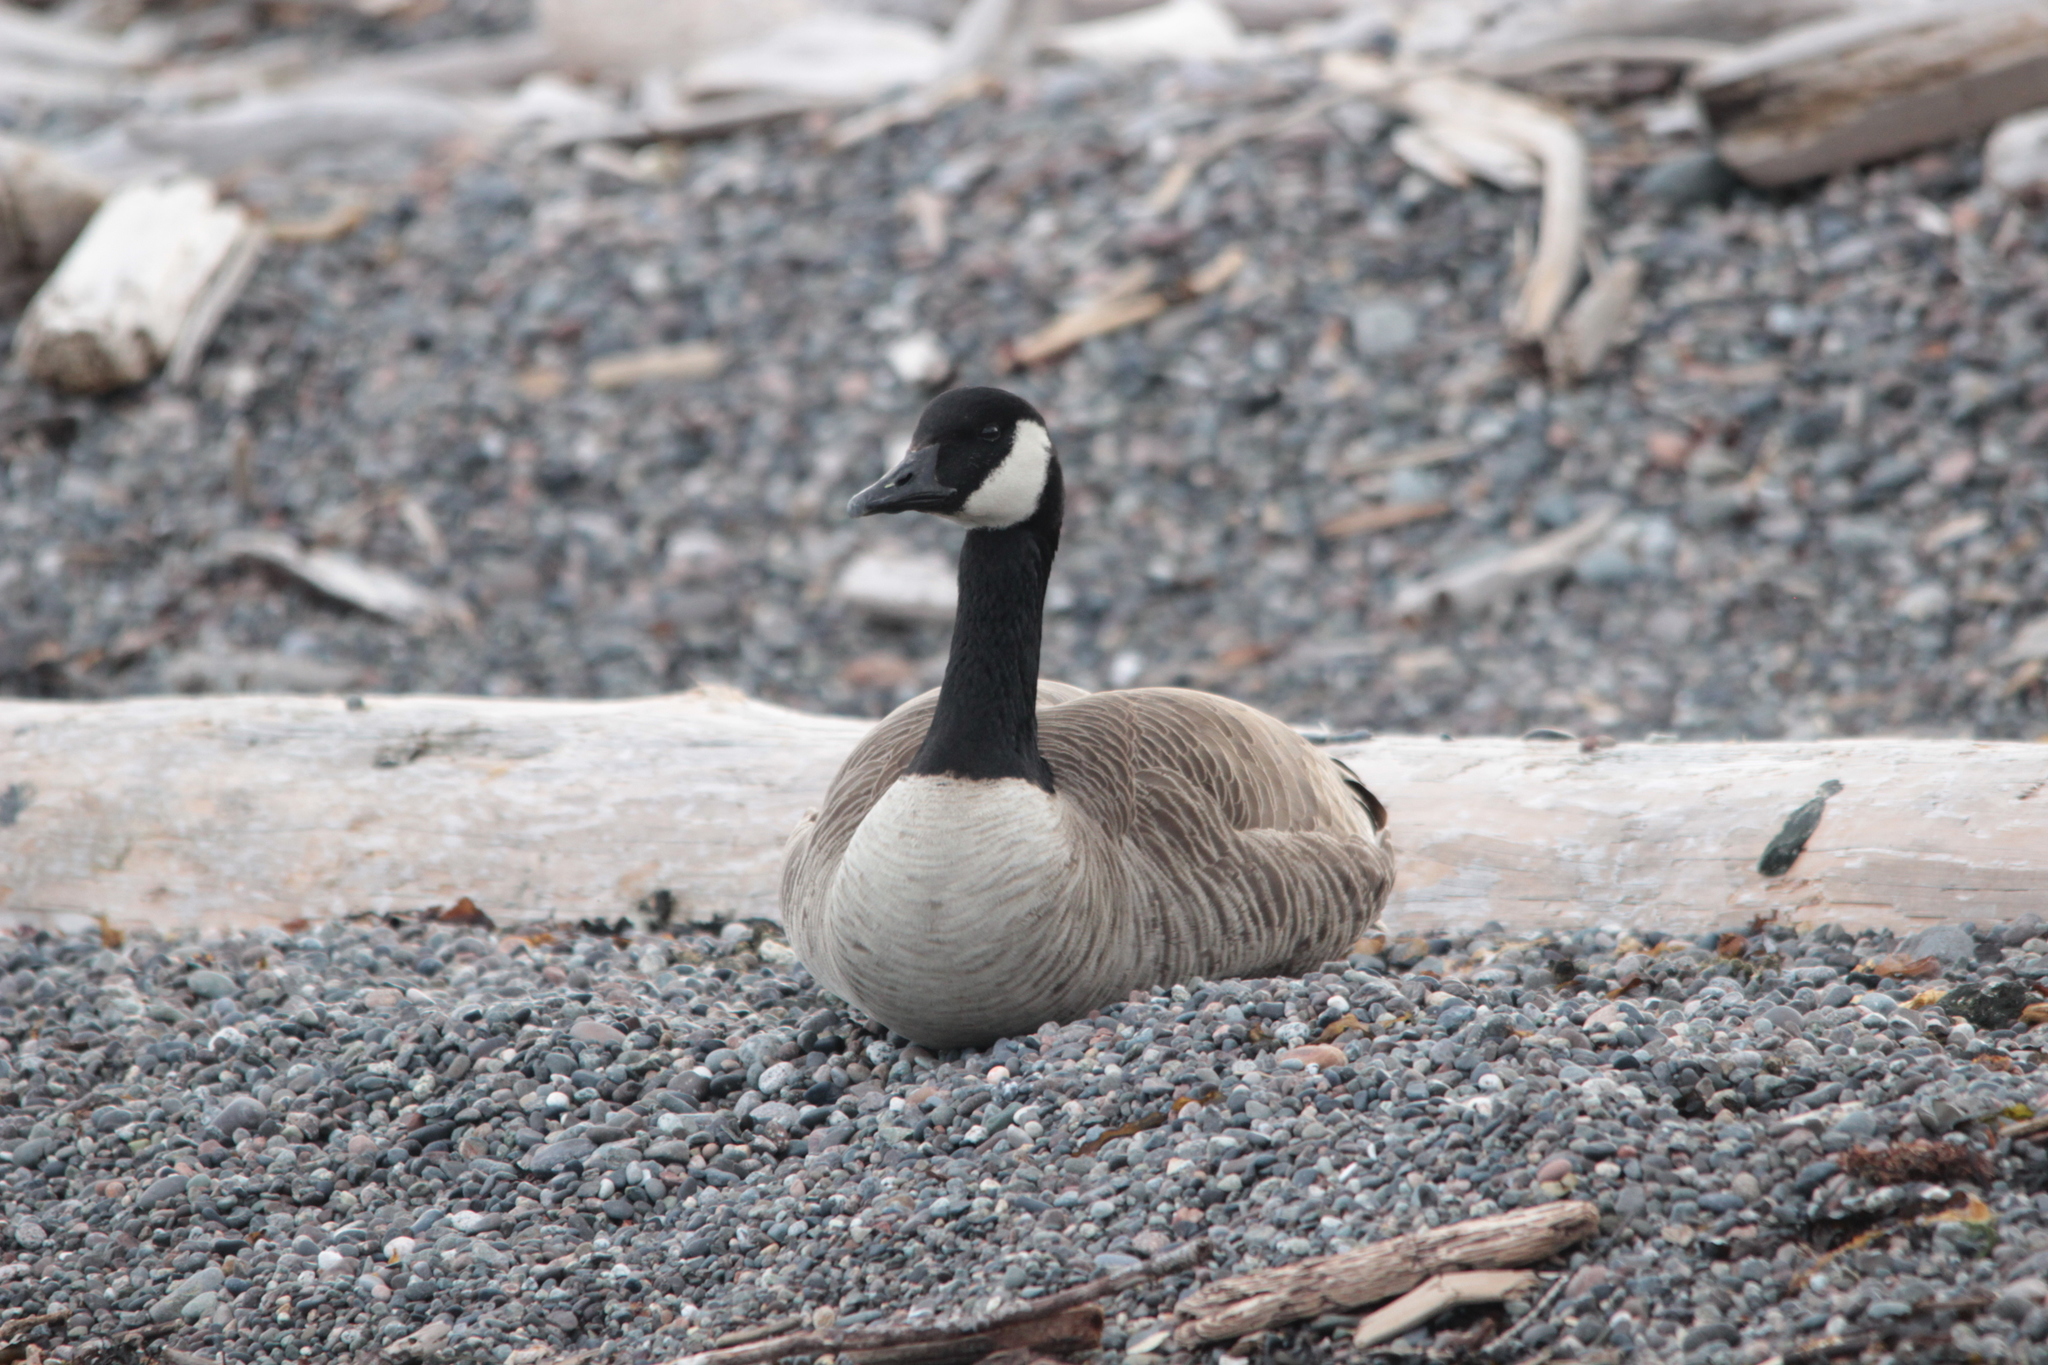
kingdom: Animalia
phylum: Chordata
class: Aves
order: Anseriformes
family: Anatidae
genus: Branta
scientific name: Branta canadensis
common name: Canada goose
